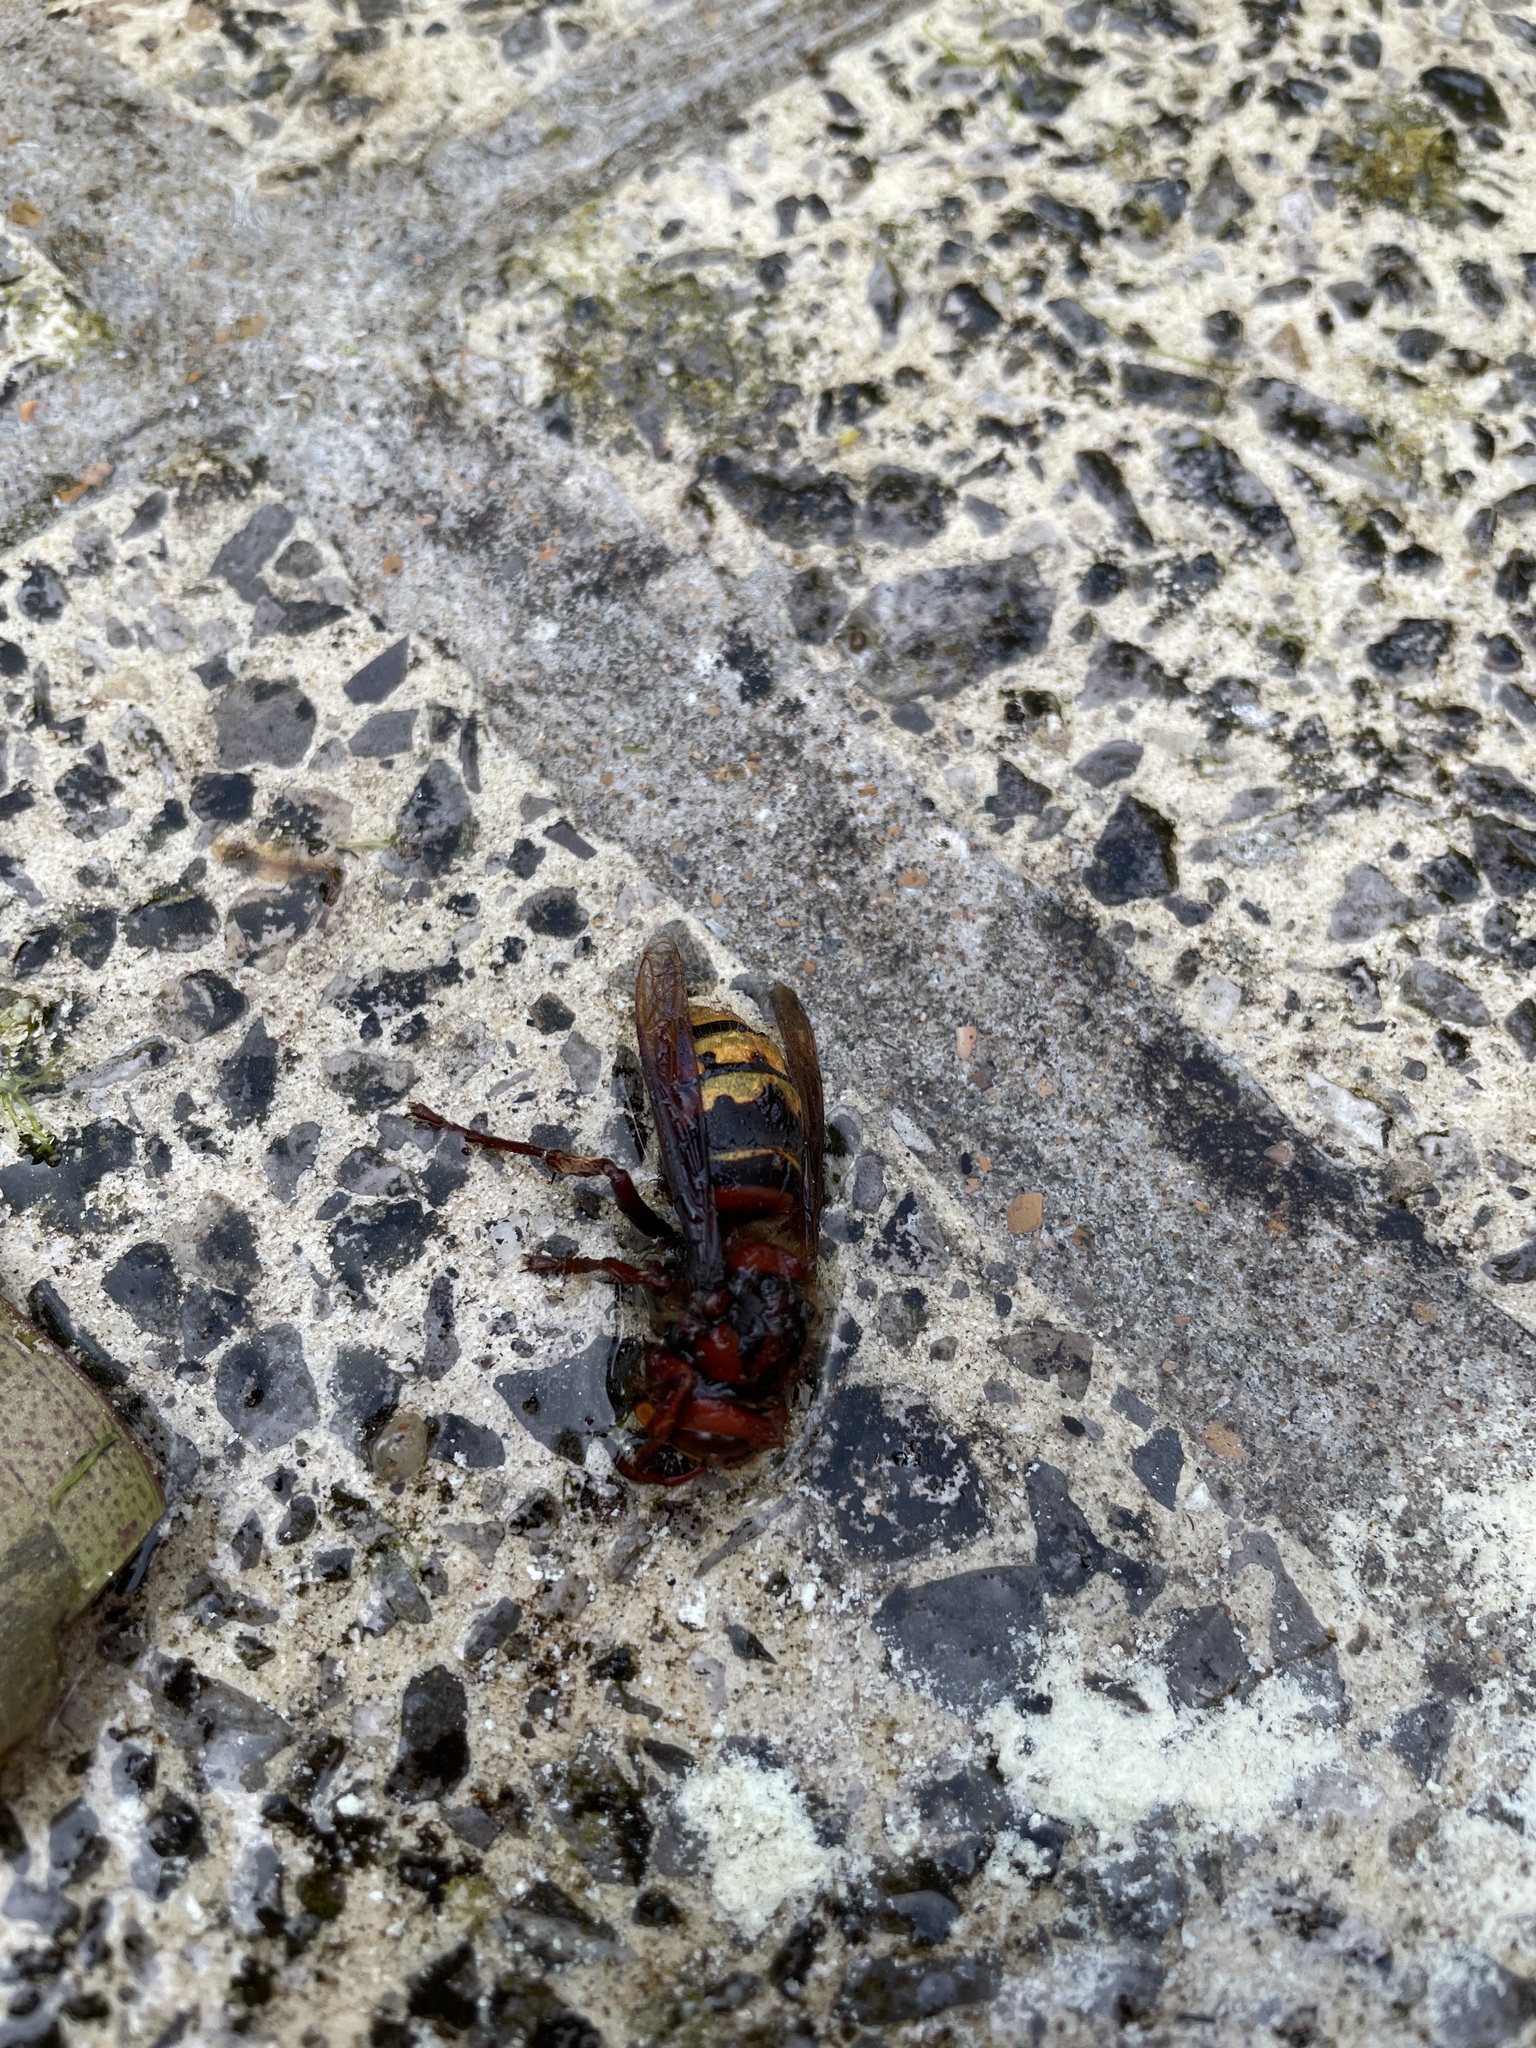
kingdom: Animalia
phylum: Arthropoda
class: Insecta
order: Hymenoptera
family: Vespidae
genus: Vespa
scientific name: Vespa crabro
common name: Hornet
